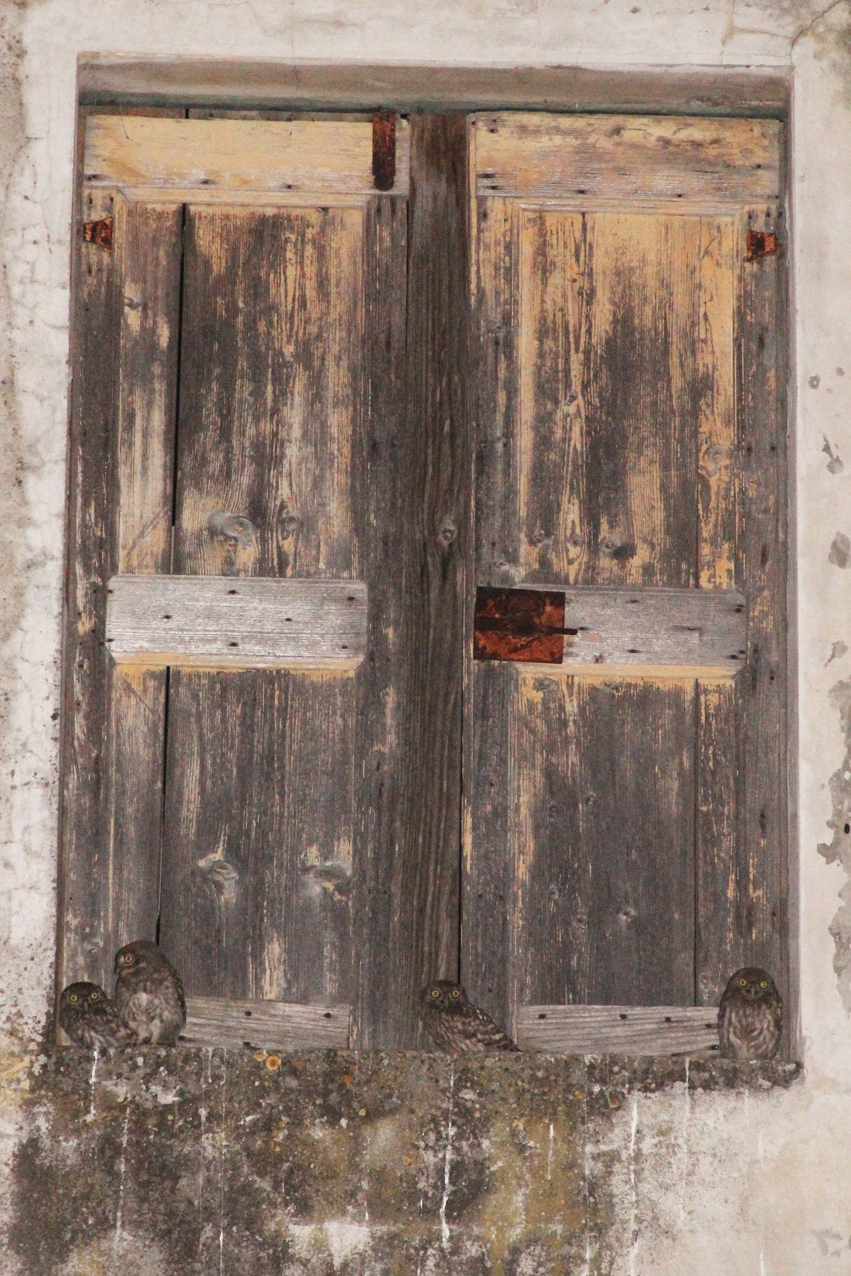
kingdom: Animalia
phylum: Chordata
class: Aves
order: Strigiformes
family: Strigidae
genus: Athene
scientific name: Athene noctua
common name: Little owl
